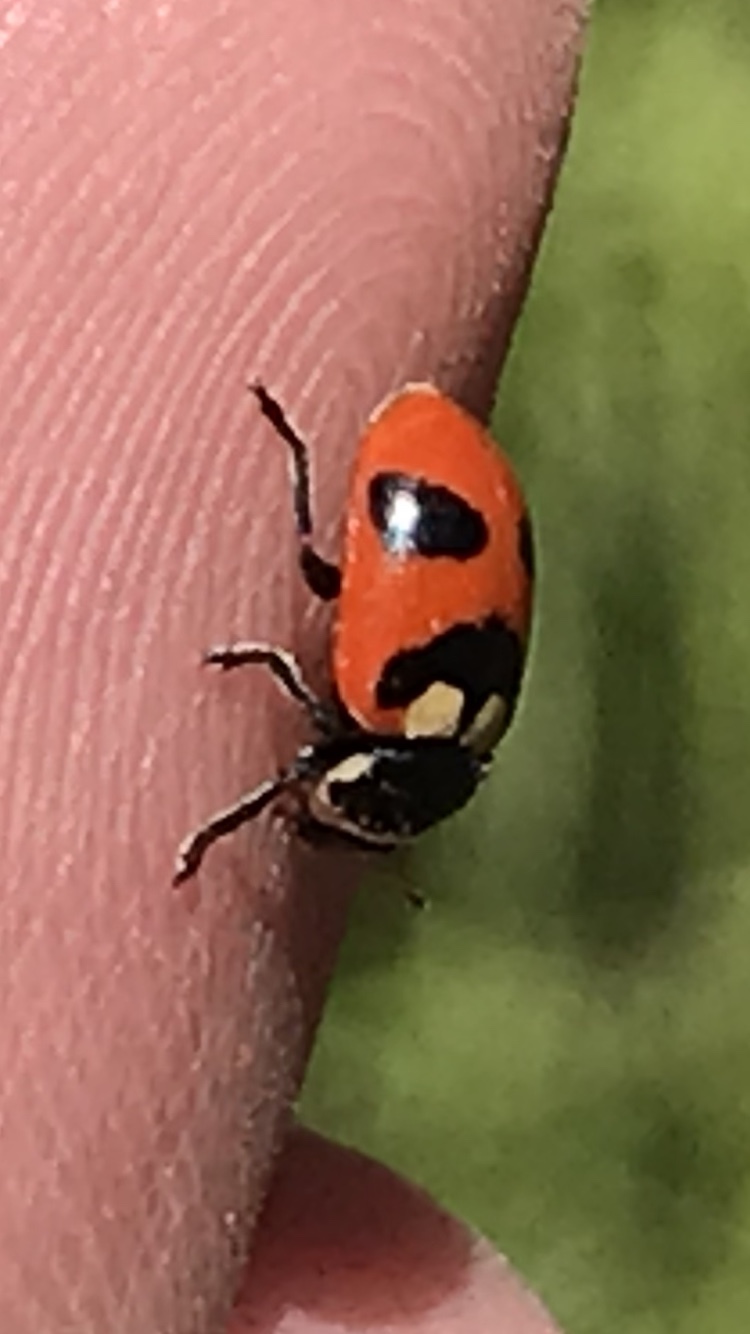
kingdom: Animalia
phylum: Arthropoda
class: Insecta
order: Coleoptera
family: Coccinellidae
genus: Hippodamia
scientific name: Hippodamia oregonensis
